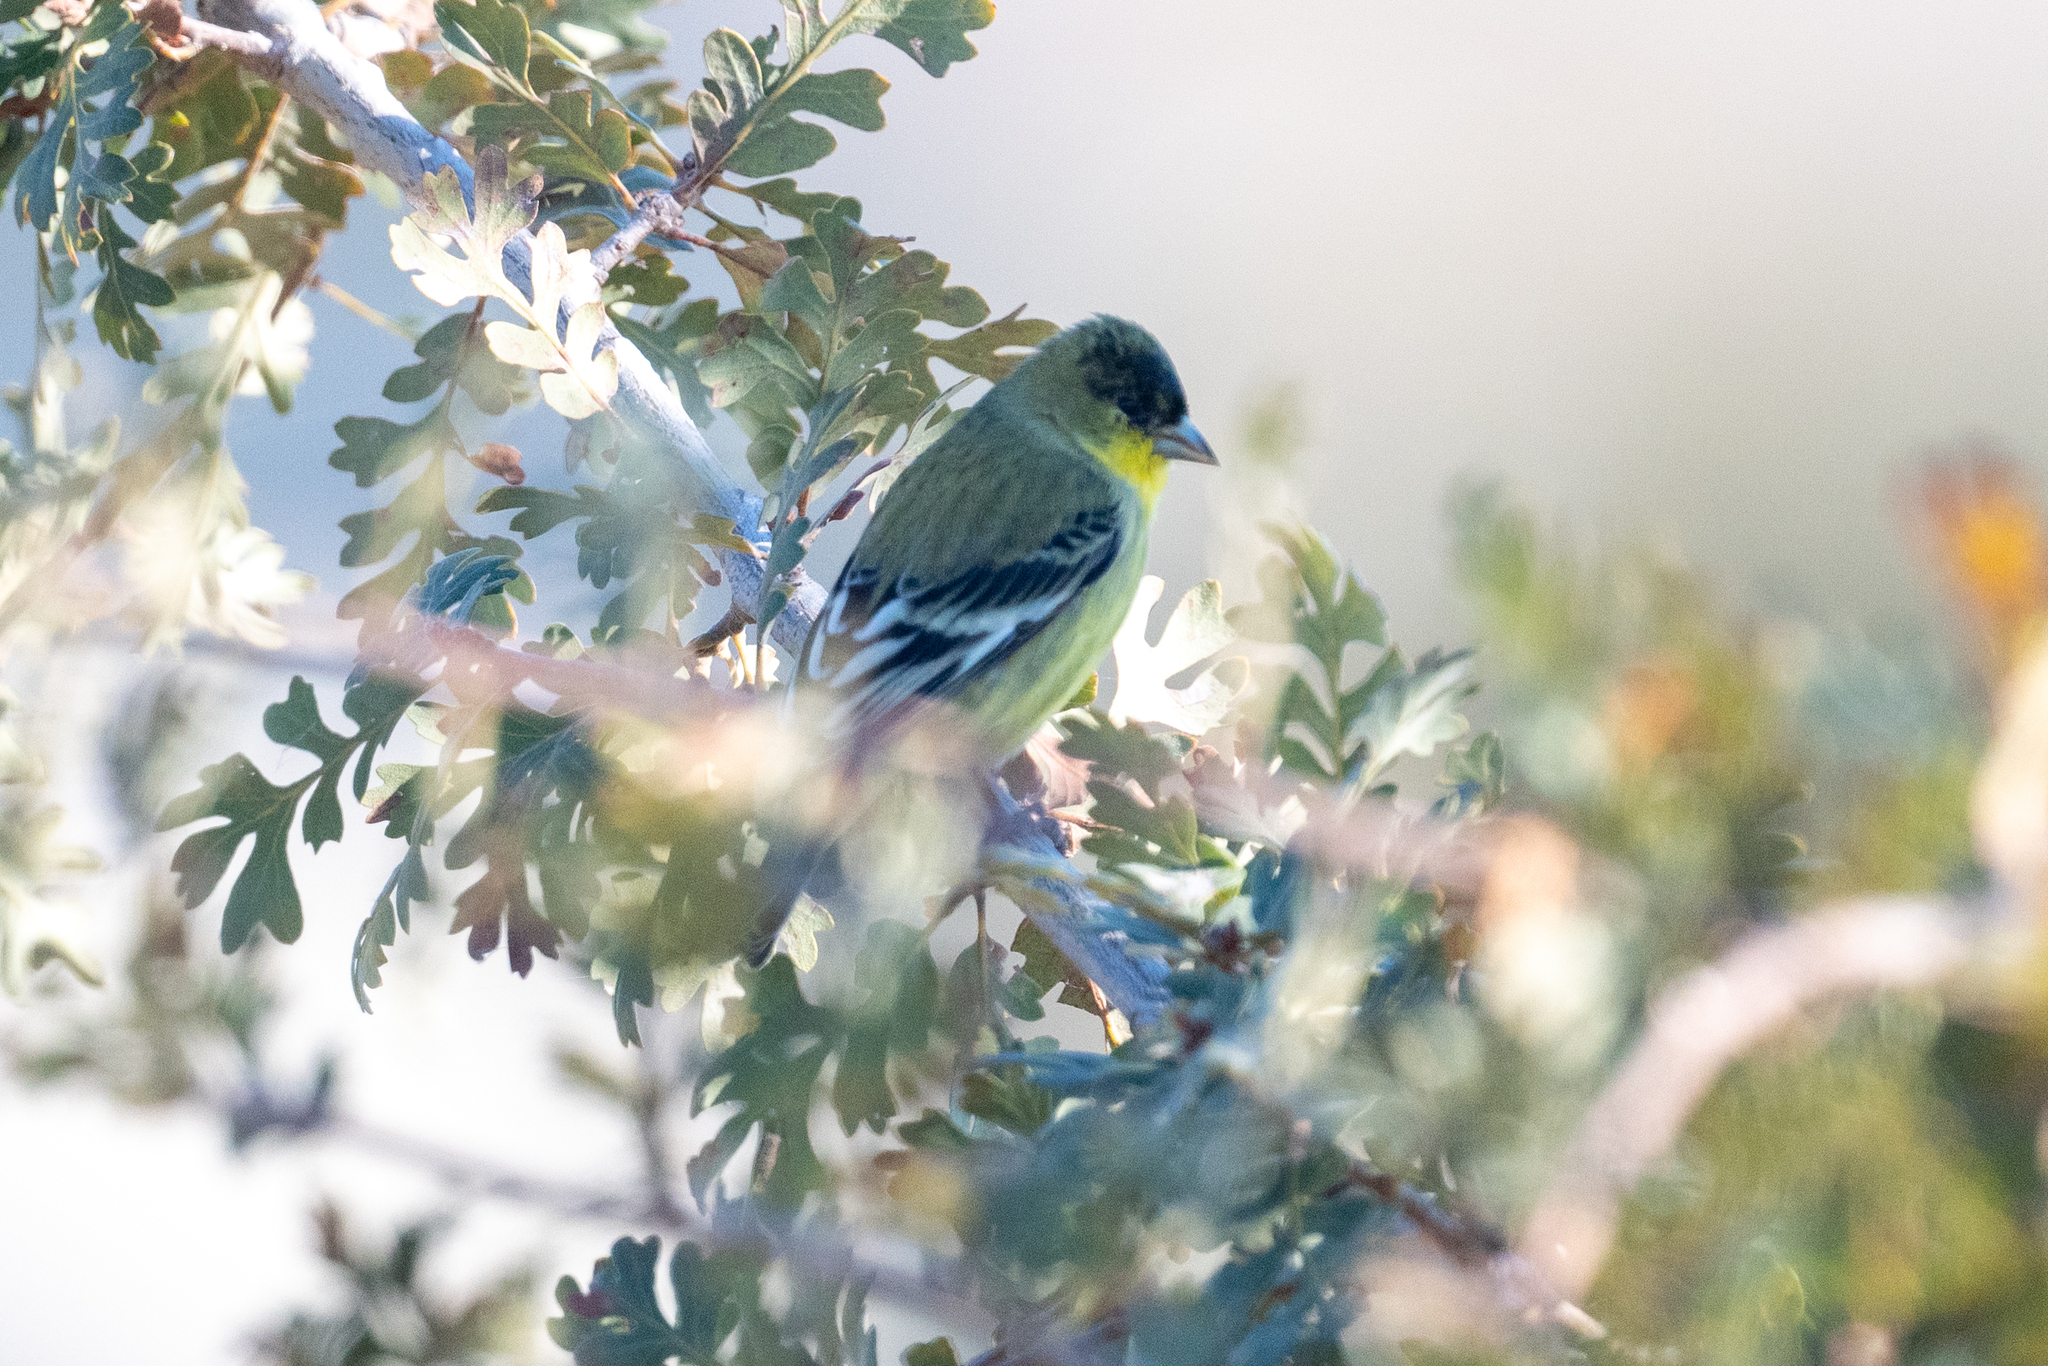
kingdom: Animalia
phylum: Chordata
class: Aves
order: Passeriformes
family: Fringillidae
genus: Spinus
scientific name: Spinus psaltria
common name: Lesser goldfinch
